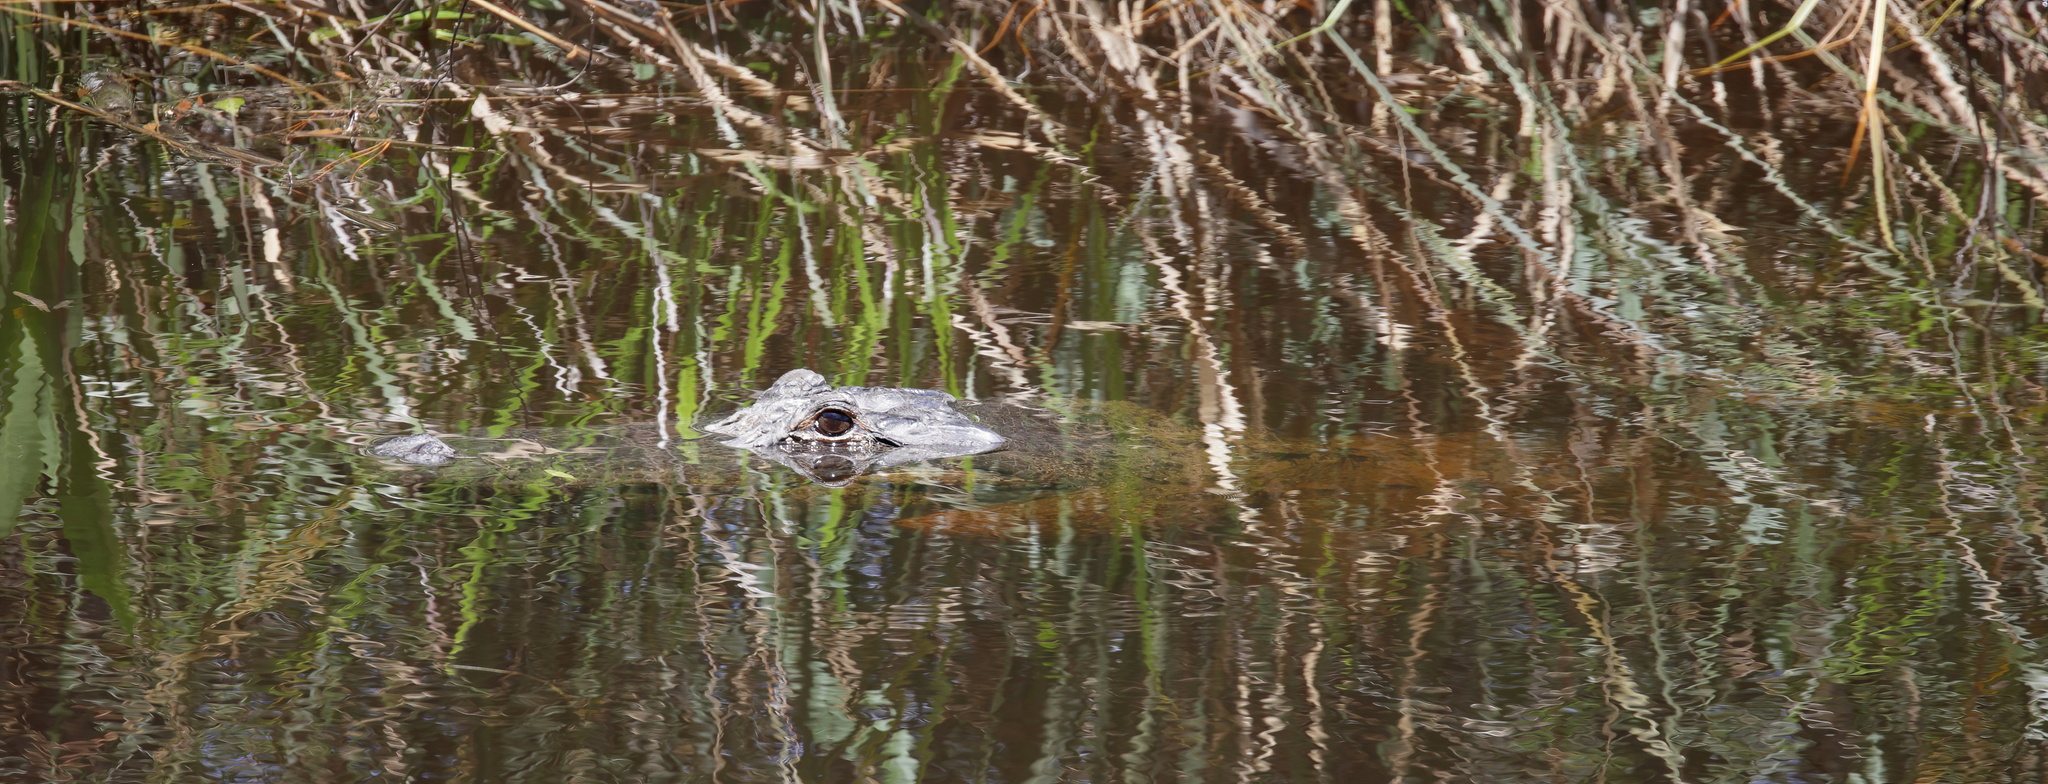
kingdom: Animalia
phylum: Chordata
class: Crocodylia
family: Alligatoridae
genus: Alligator
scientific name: Alligator mississippiensis
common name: American alligator
